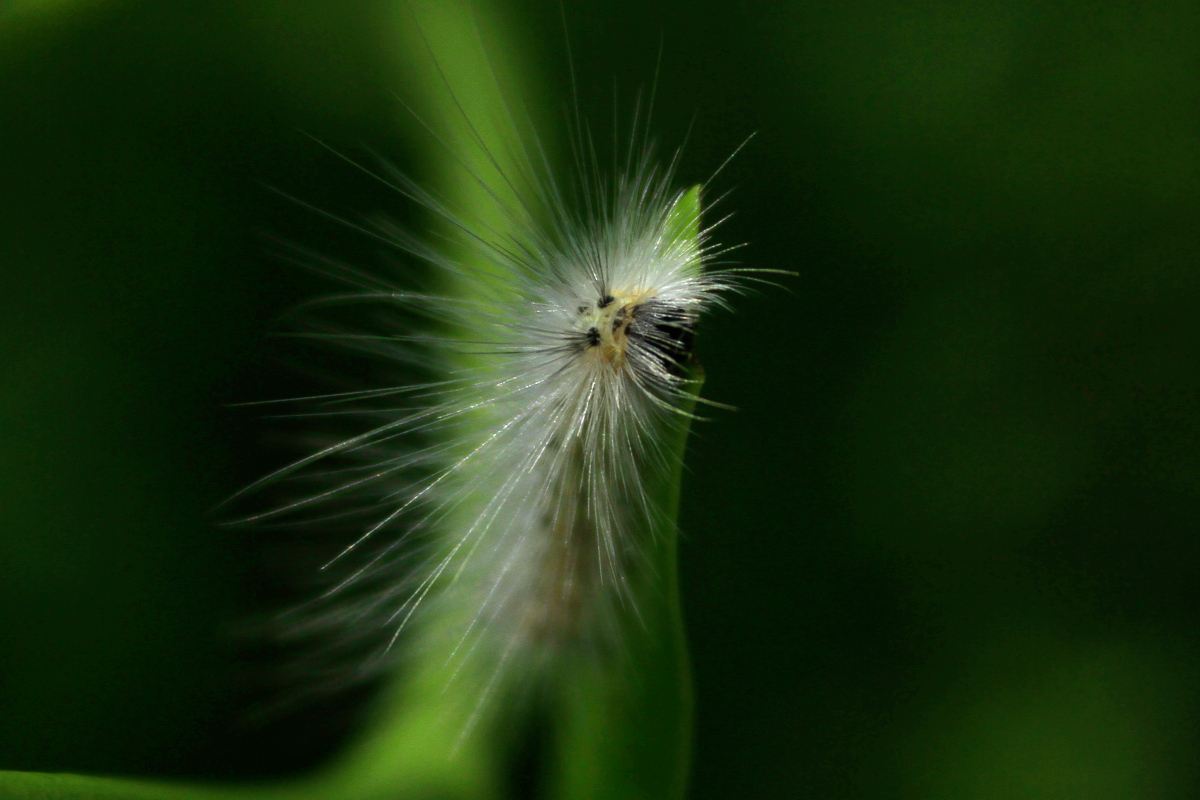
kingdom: Animalia
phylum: Arthropoda
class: Insecta
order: Lepidoptera
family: Erebidae
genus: Hyphantria
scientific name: Hyphantria cunea
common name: American white moth
